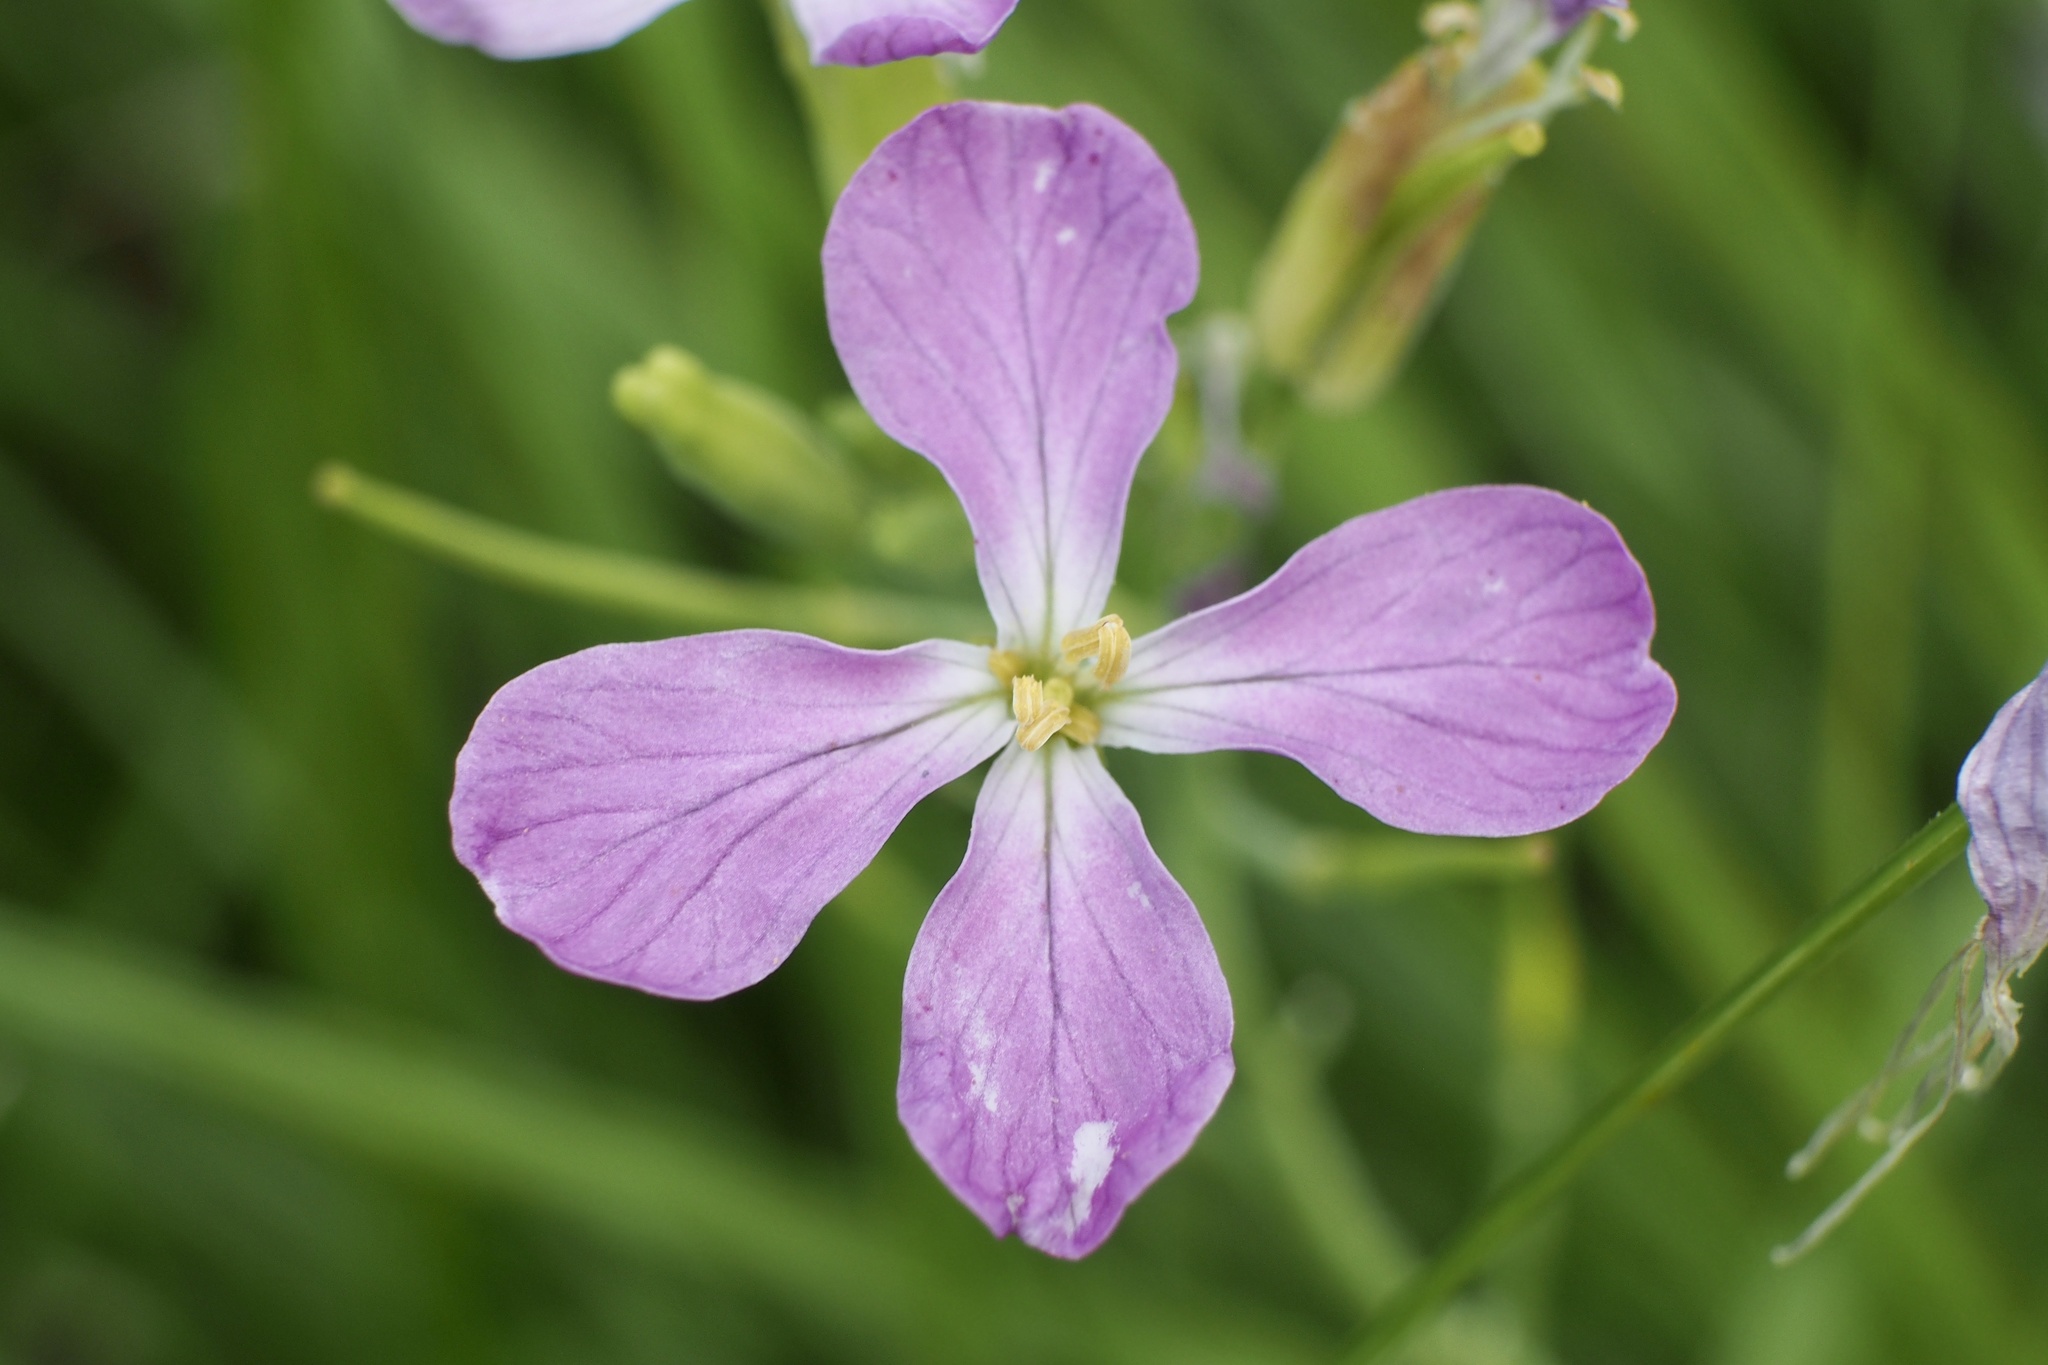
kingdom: Plantae
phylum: Tracheophyta
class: Magnoliopsida
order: Brassicales
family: Brassicaceae
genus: Raphanus
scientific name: Raphanus sativus
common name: Cultivated radish
